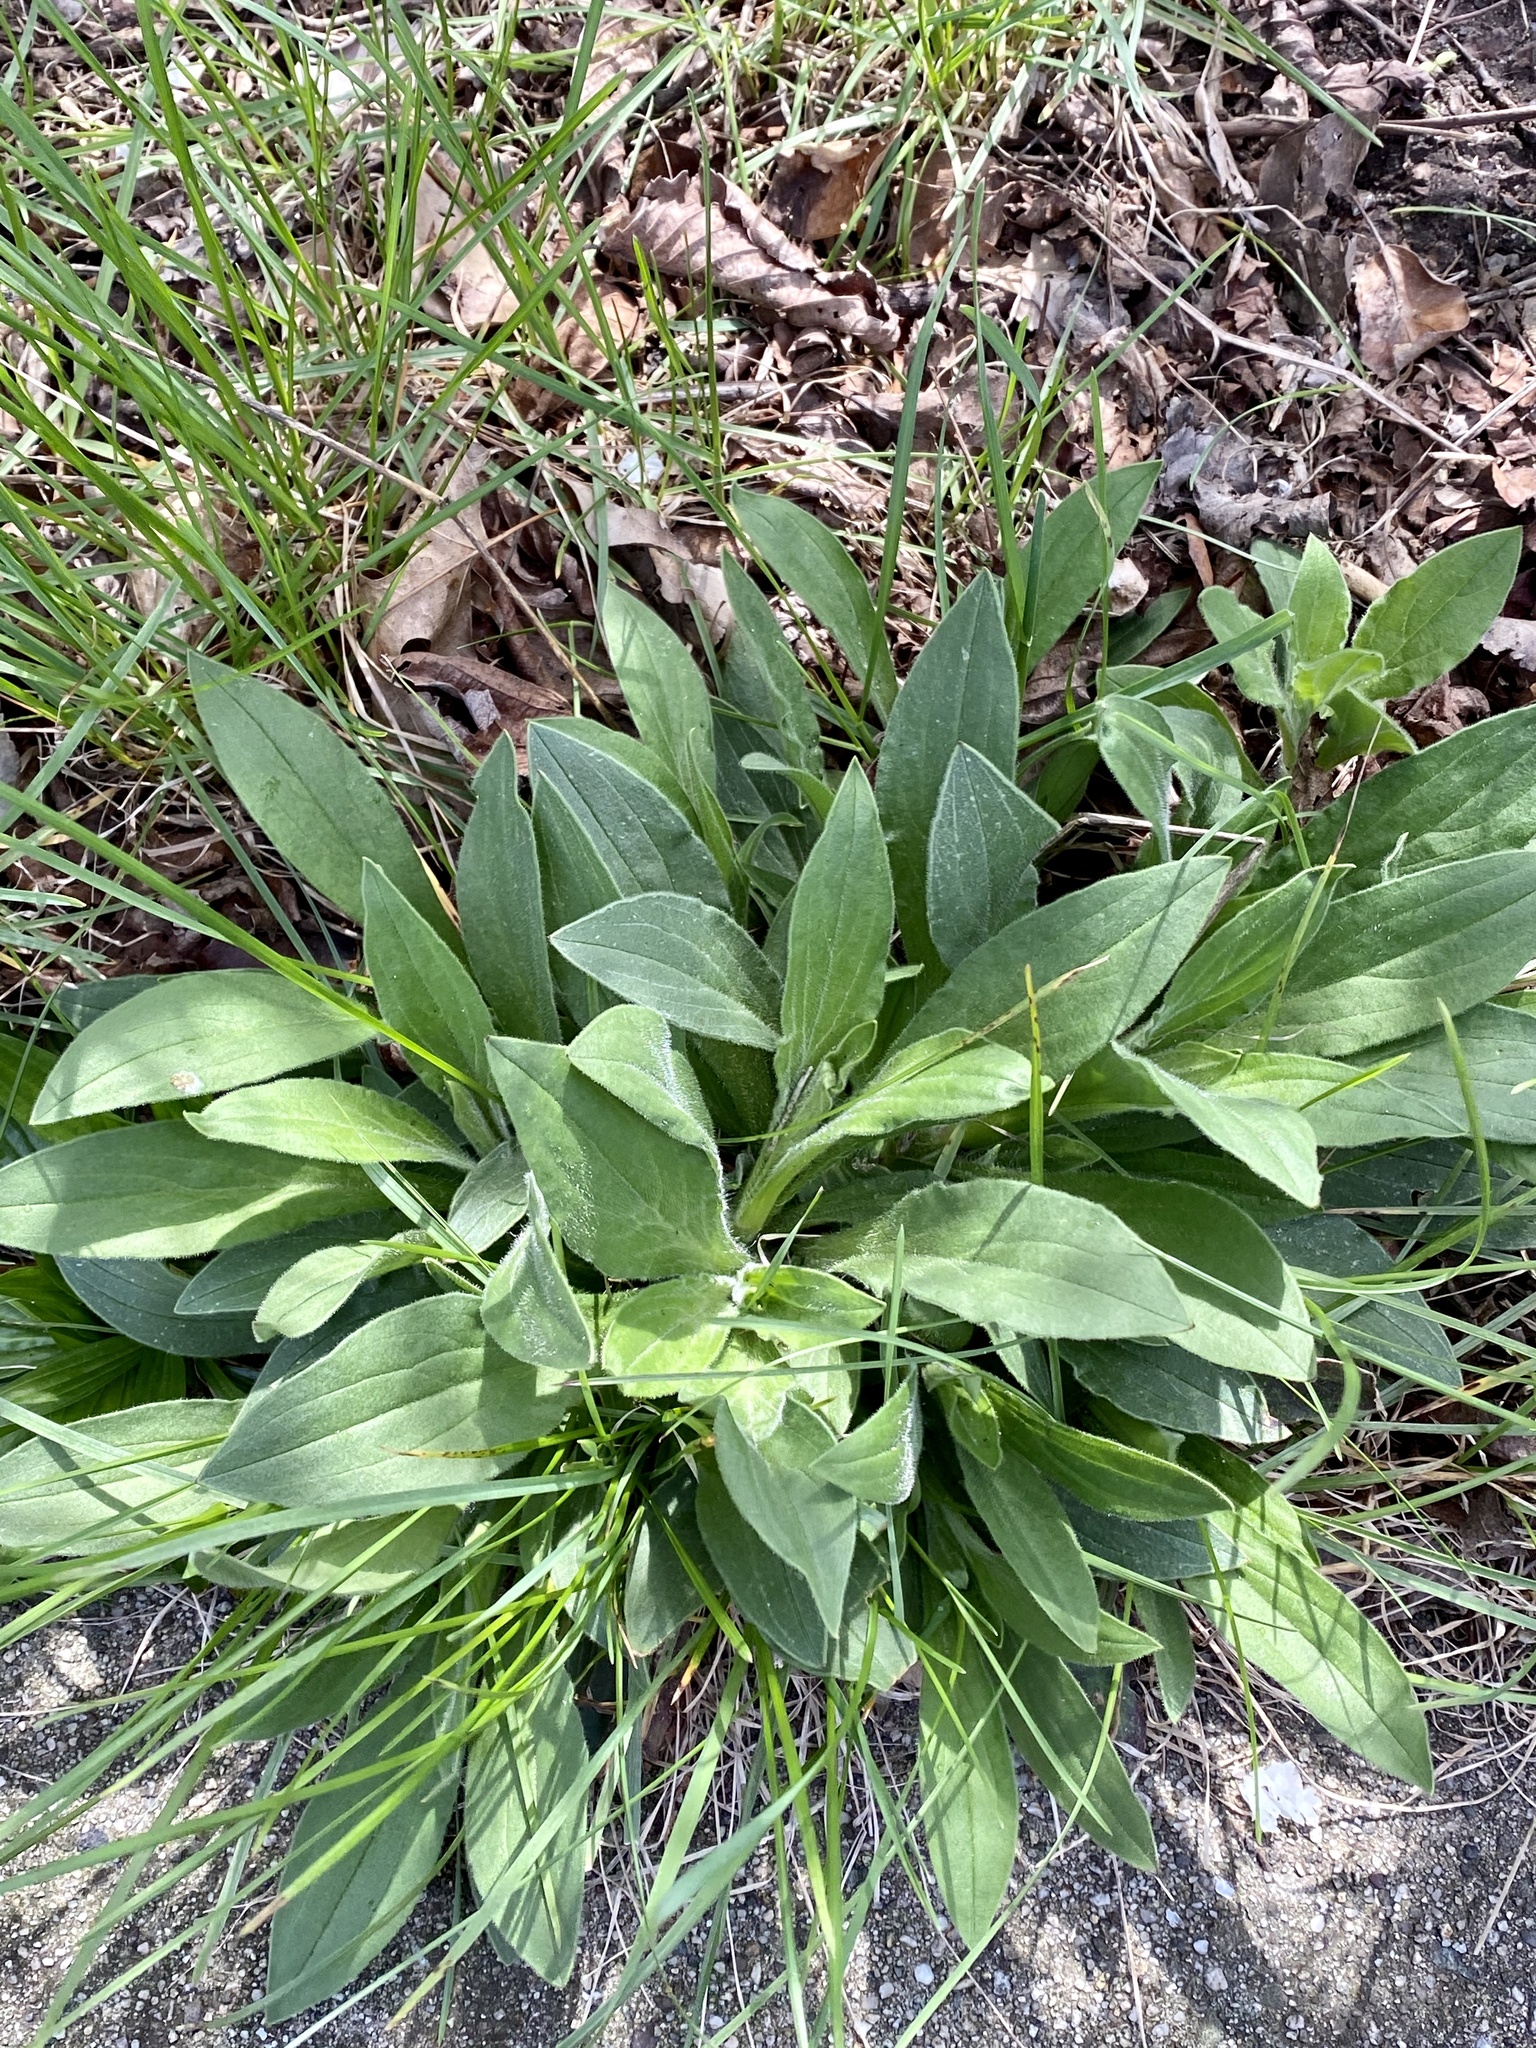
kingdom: Plantae
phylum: Tracheophyta
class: Magnoliopsida
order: Caryophyllales
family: Caryophyllaceae
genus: Silene
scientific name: Silene latifolia
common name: White campion
